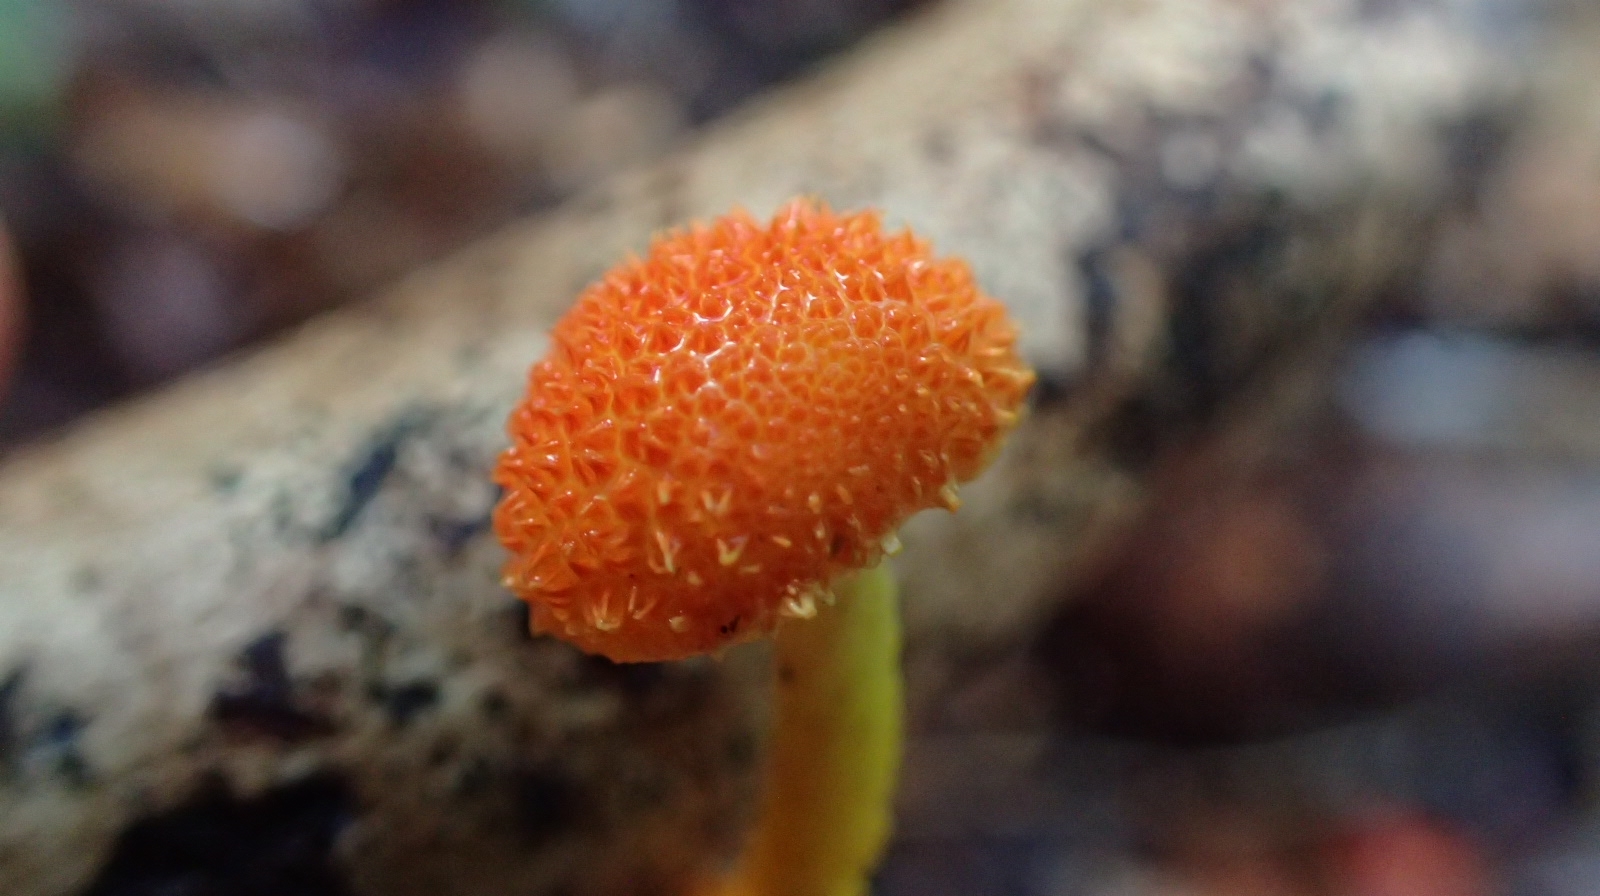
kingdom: Fungi
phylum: Basidiomycota
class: Agaricomycetes
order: Agaricales
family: Physalacriaceae
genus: Cyptotrama
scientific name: Cyptotrama asprata
